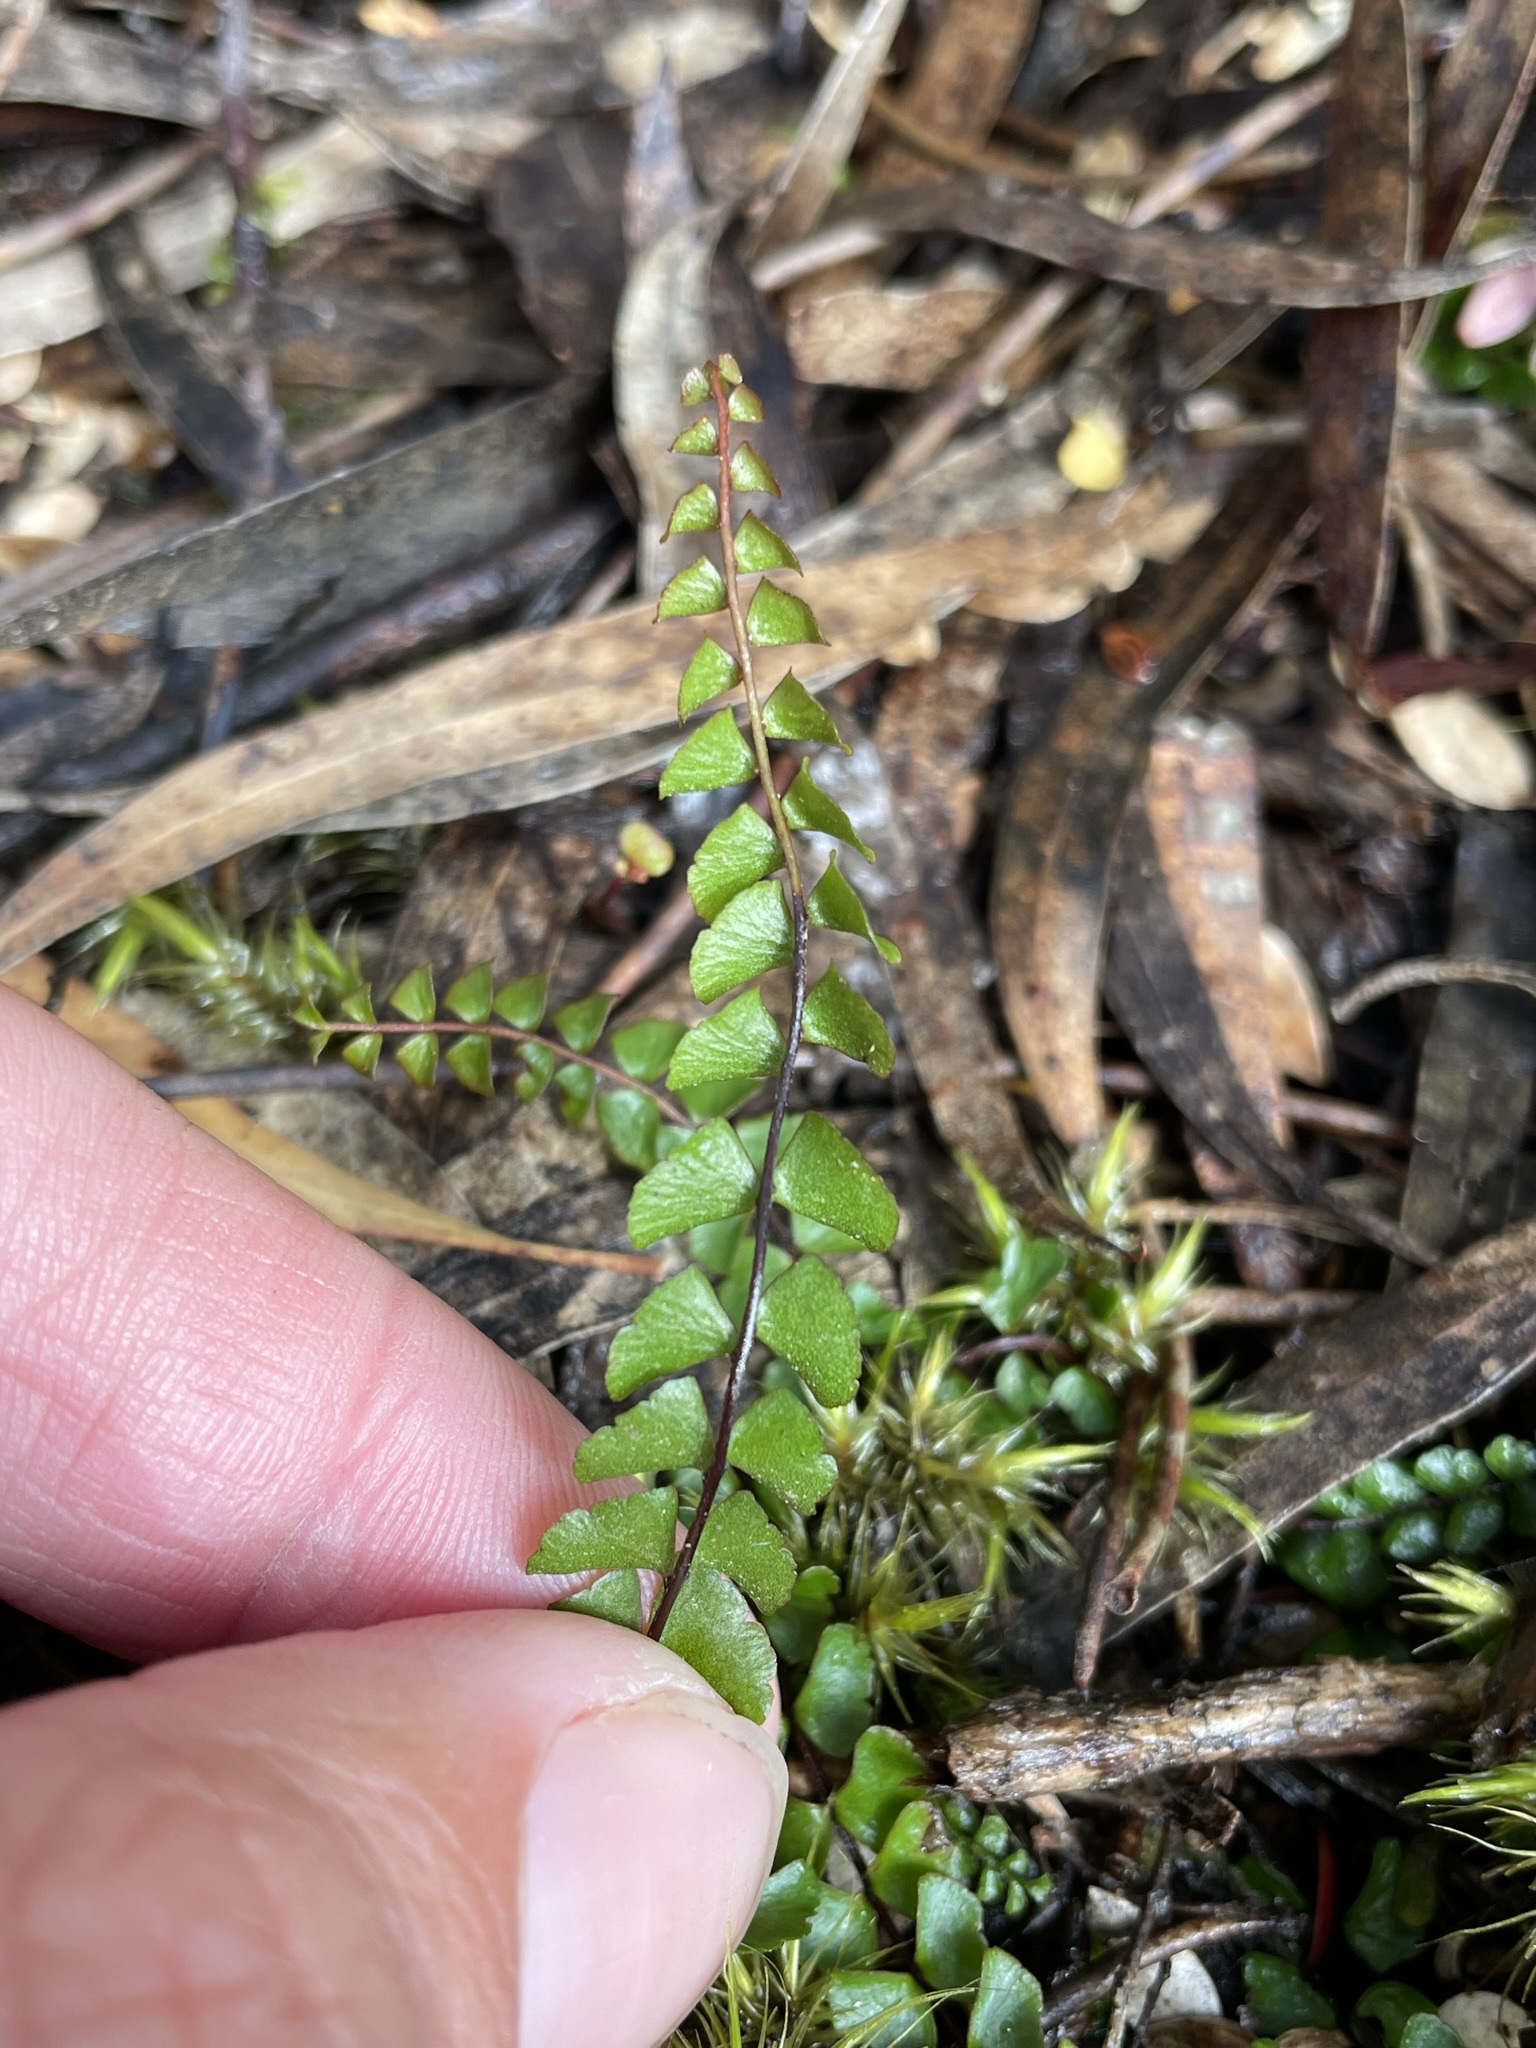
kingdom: Plantae
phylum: Tracheophyta
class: Polypodiopsida
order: Polypodiales
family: Lindsaeaceae
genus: Lindsaea
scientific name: Lindsaea linearis
